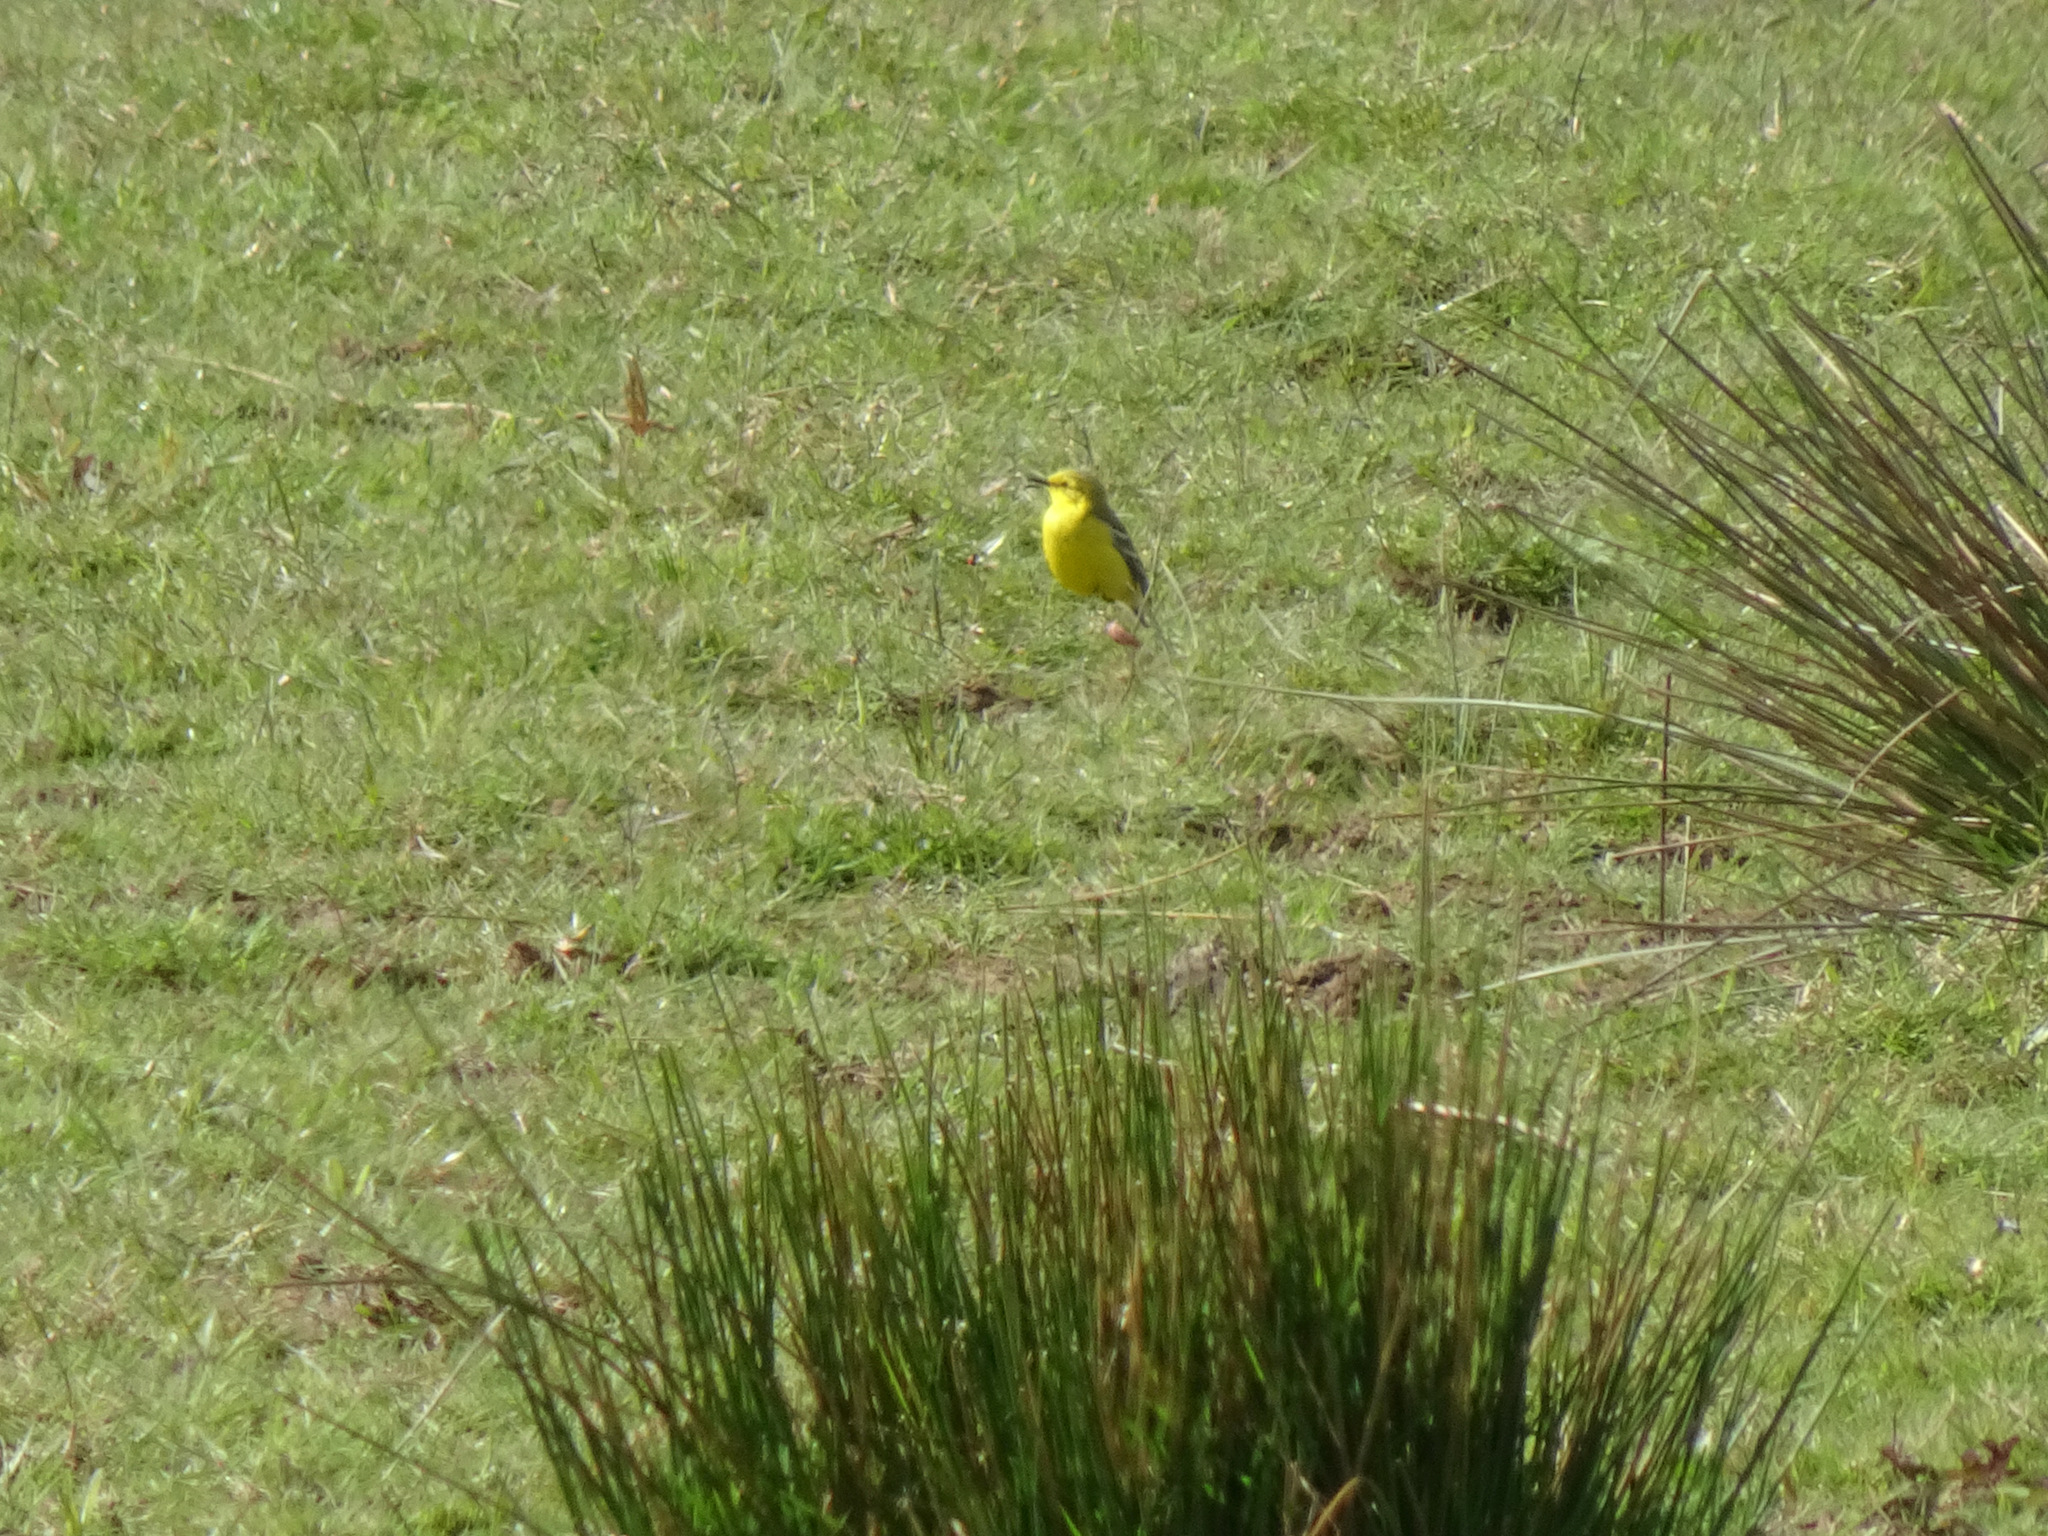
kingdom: Animalia
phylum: Chordata
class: Aves
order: Passeriformes
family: Motacillidae
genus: Motacilla
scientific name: Motacilla flava
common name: Western yellow wagtail
